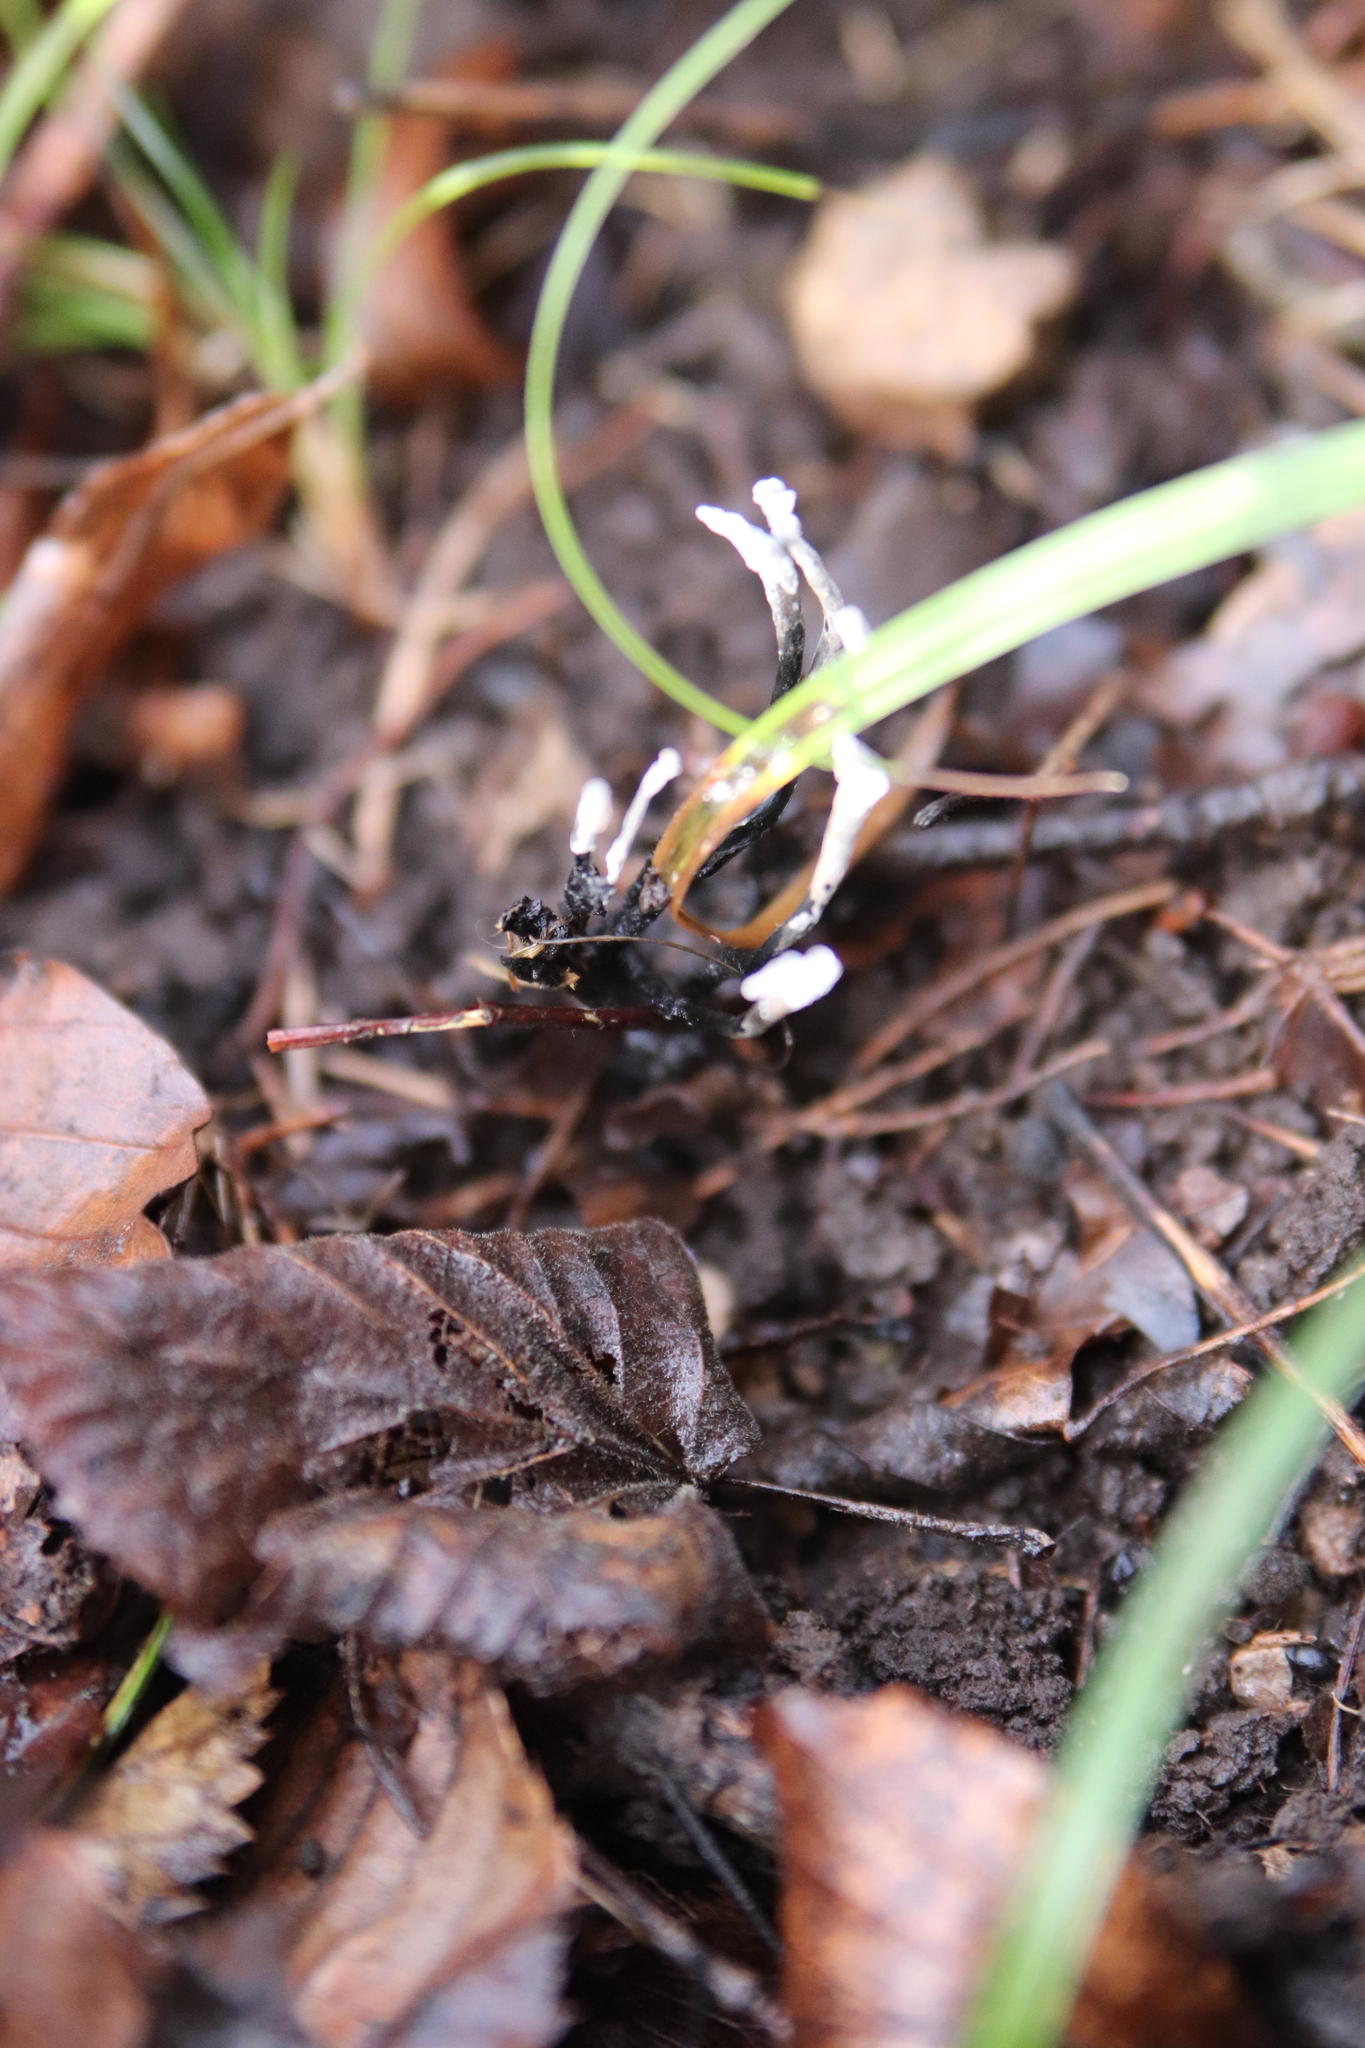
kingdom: Fungi
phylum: Ascomycota
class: Sordariomycetes
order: Xylariales
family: Xylariaceae
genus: Xylaria
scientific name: Xylaria hypoxylon
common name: Candle-snuff fungus
